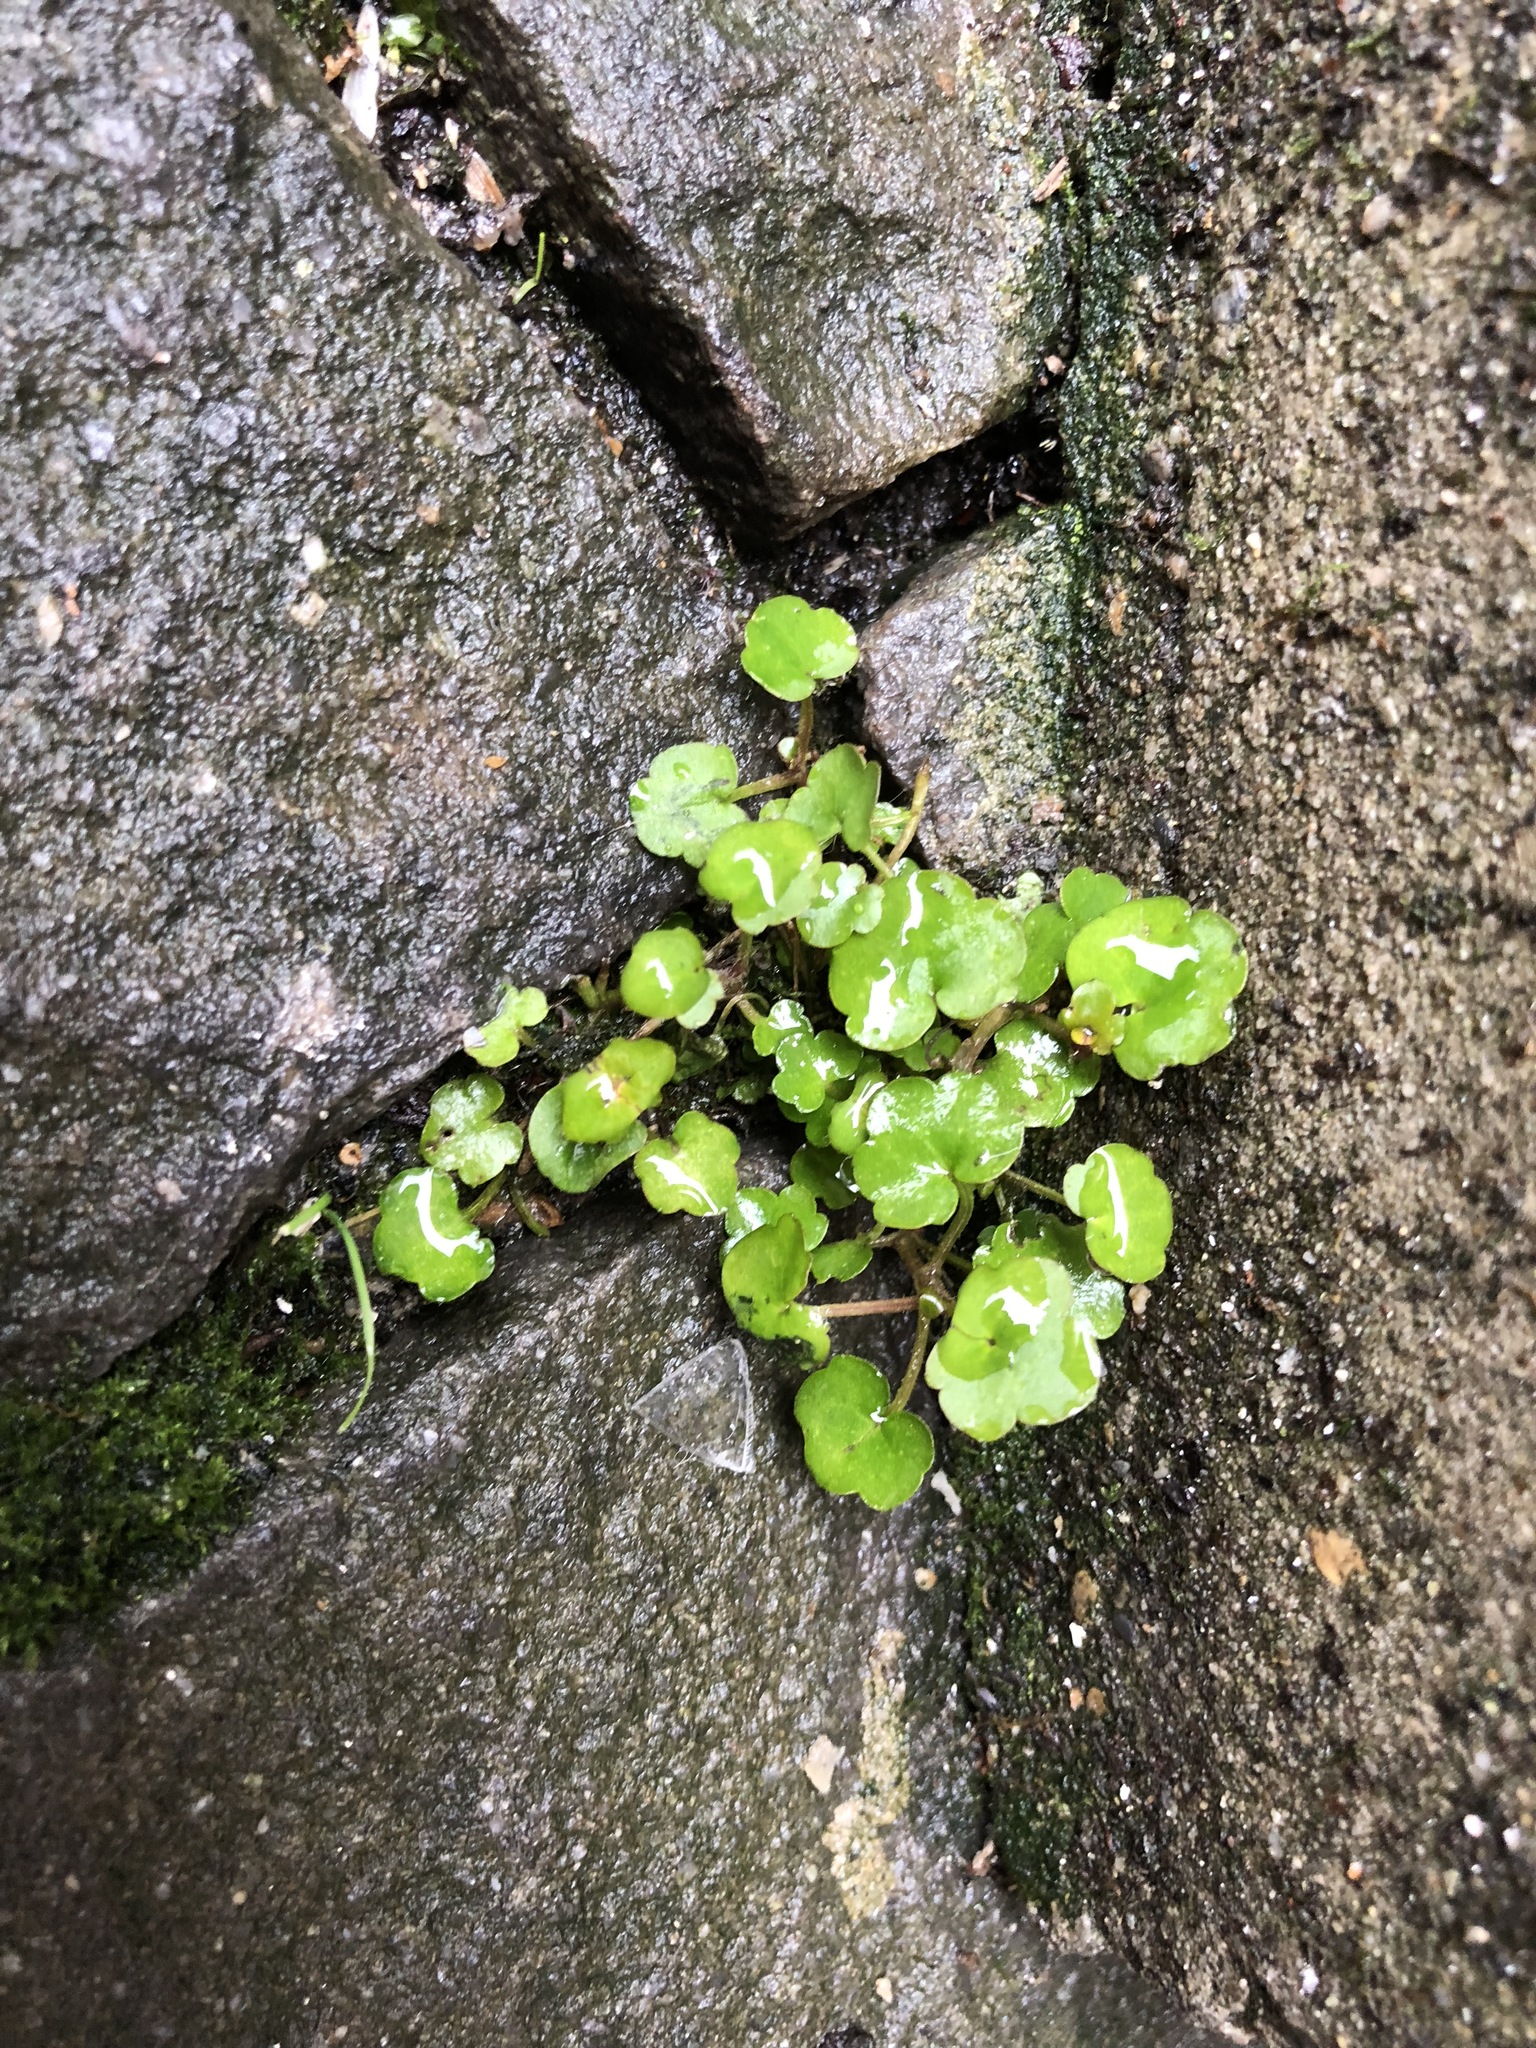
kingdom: Plantae
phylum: Tracheophyta
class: Magnoliopsida
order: Lamiales
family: Plantaginaceae
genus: Cymbalaria
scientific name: Cymbalaria muralis
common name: Ivy-leaved toadflax
